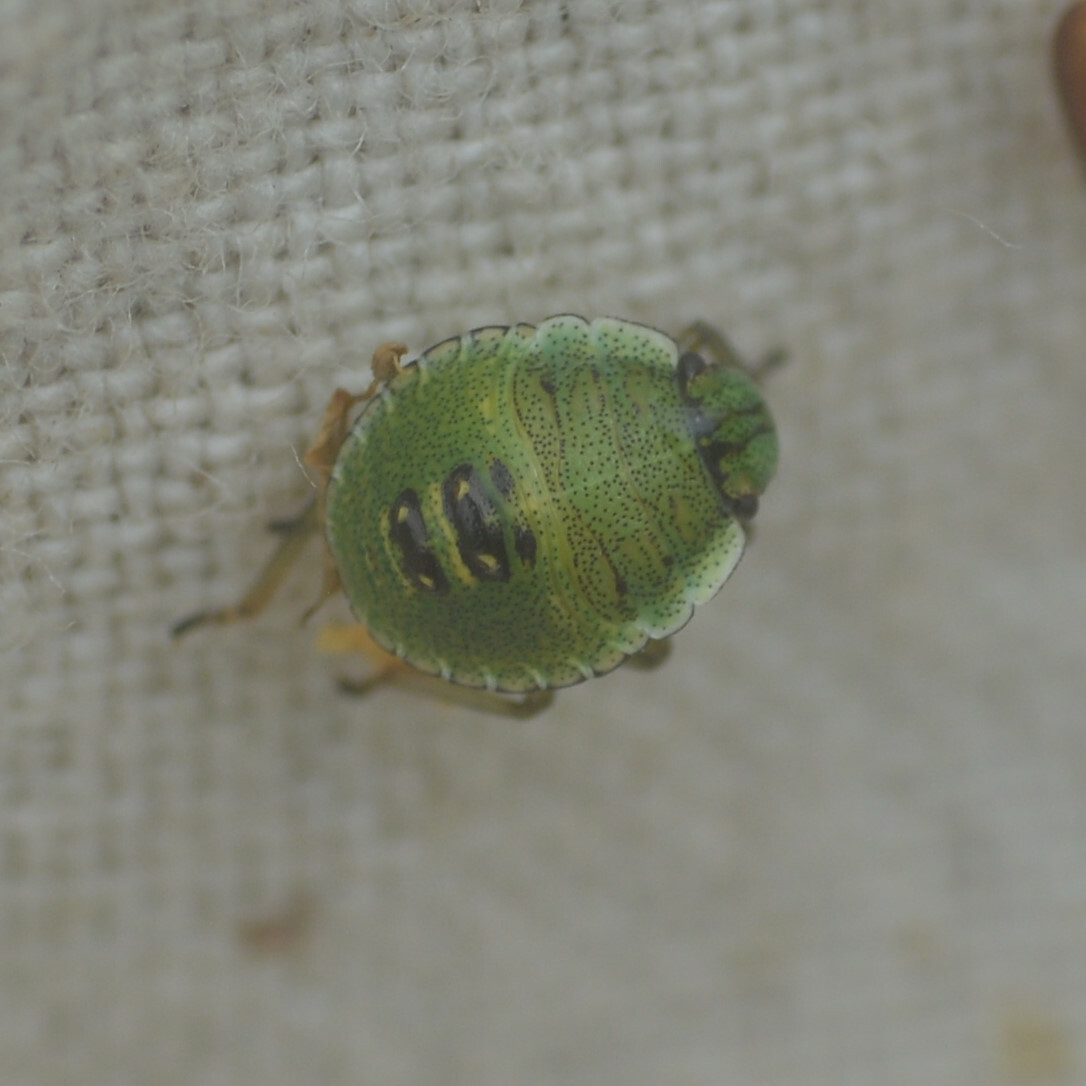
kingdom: Animalia
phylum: Arthropoda
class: Insecta
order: Hemiptera
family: Pentatomidae
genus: Palomena
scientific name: Palomena prasina
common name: Green shieldbug
